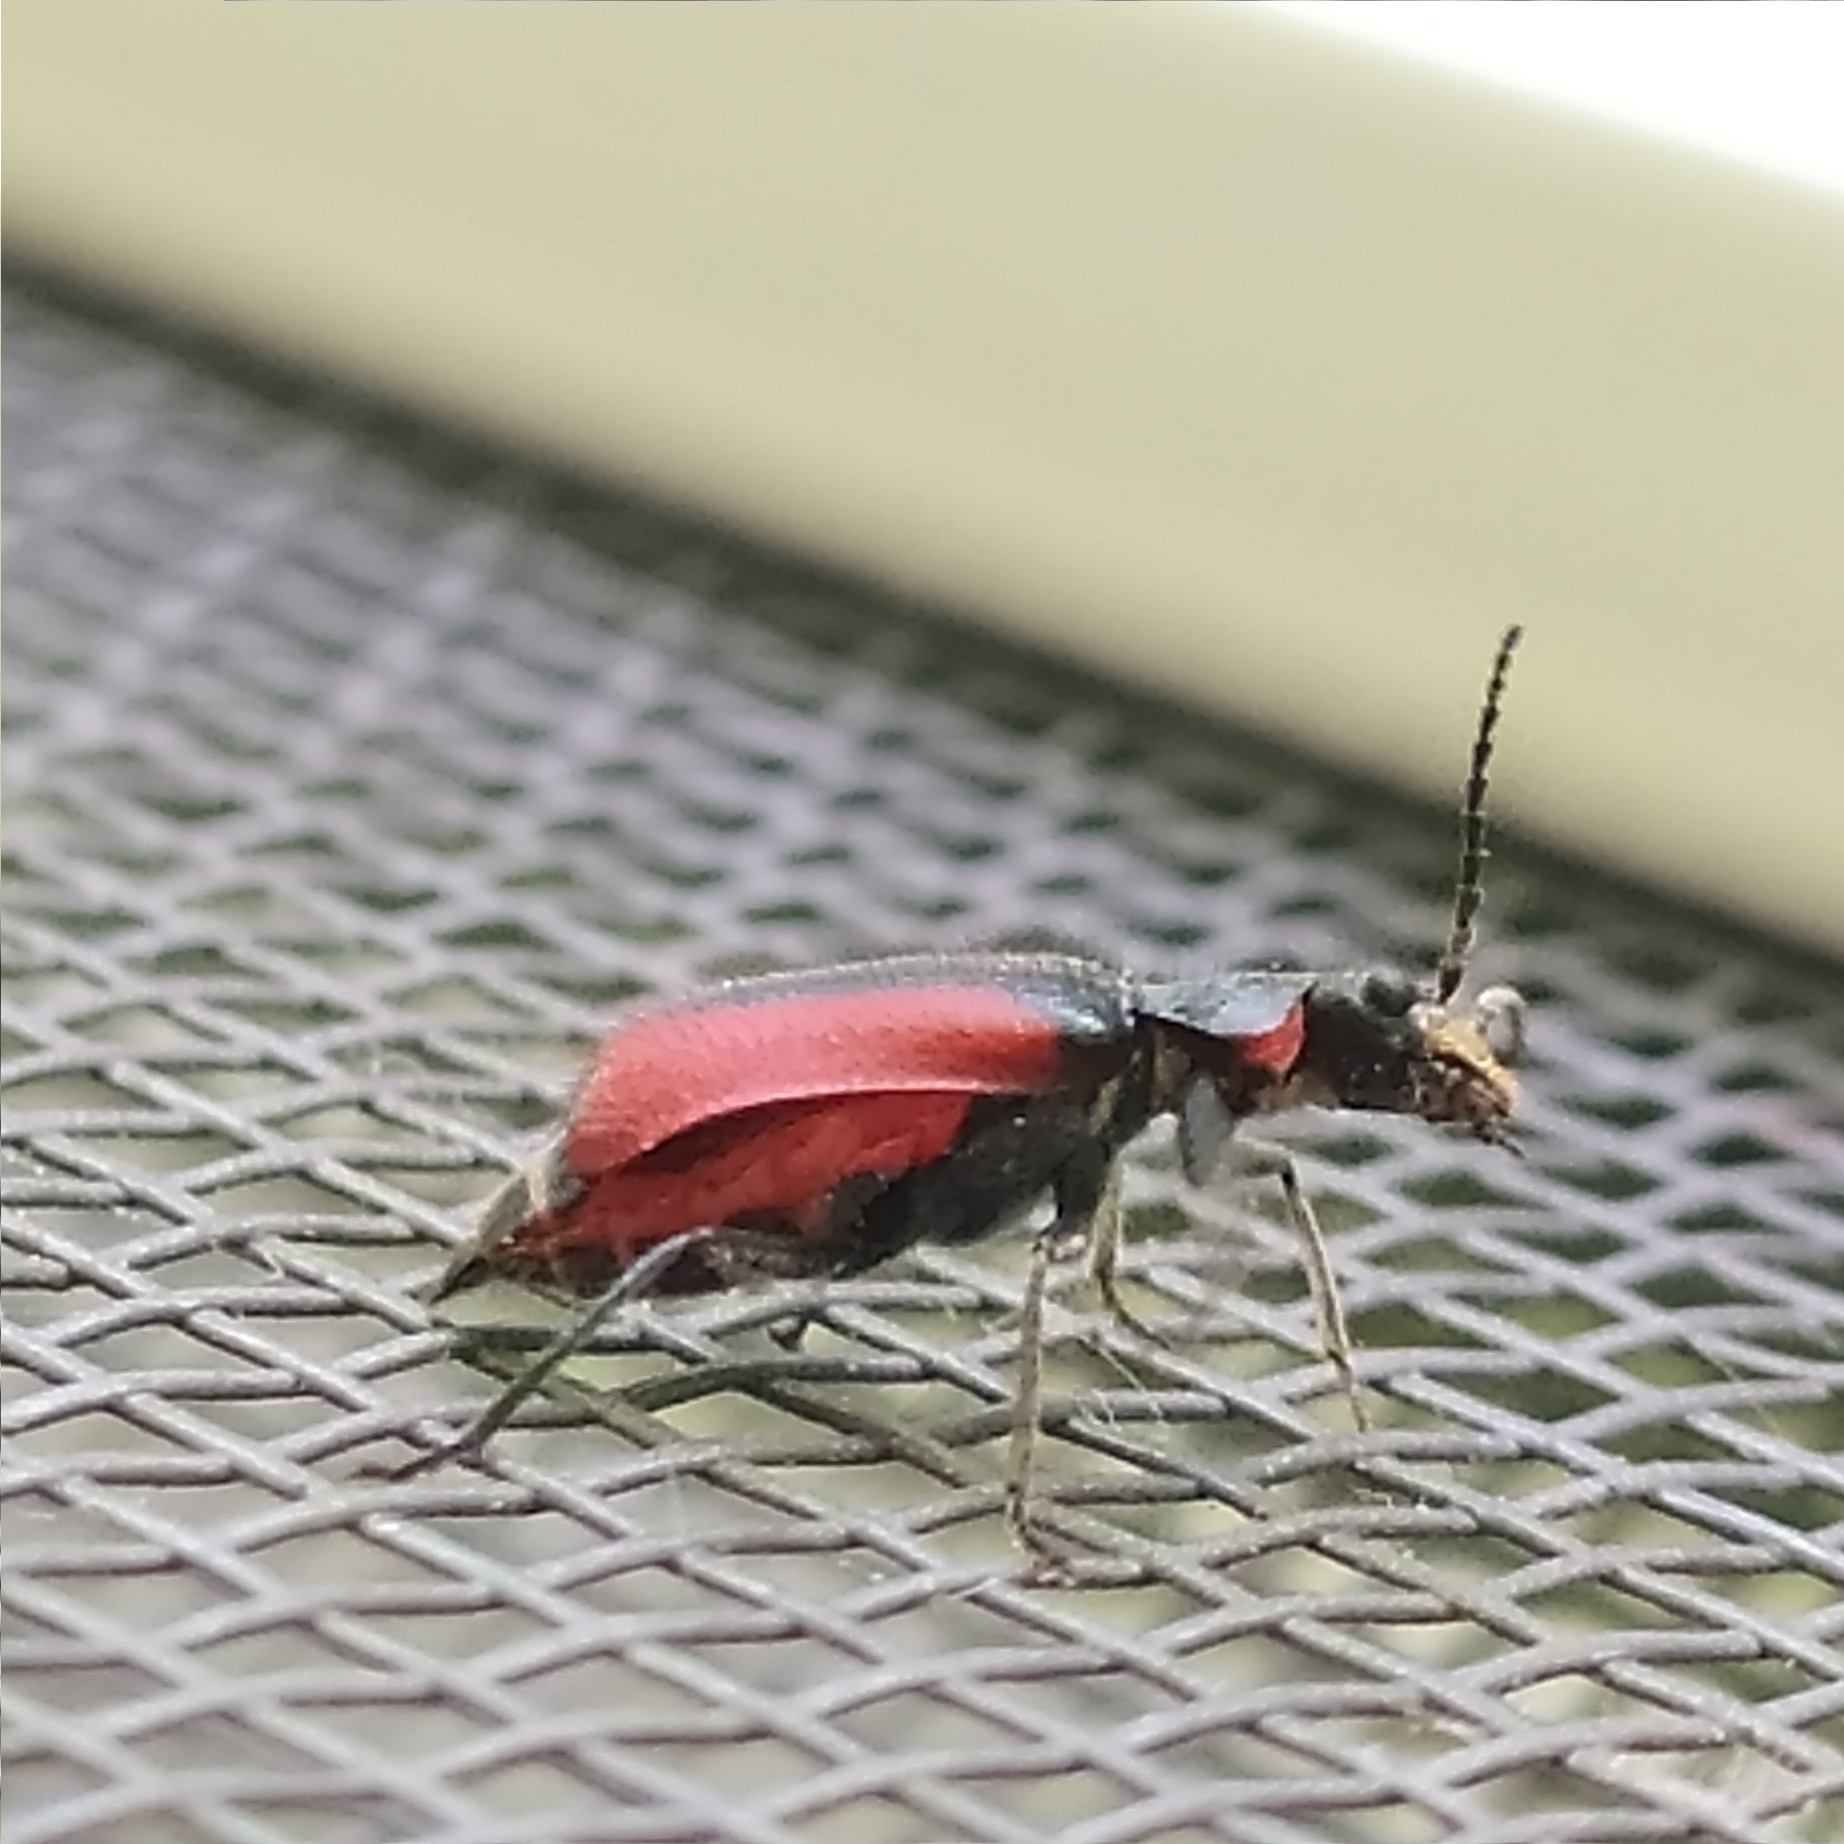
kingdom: Animalia
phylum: Arthropoda
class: Insecta
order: Coleoptera
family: Melyridae
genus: Malachius
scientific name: Malachius aeneus
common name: Scarlet malachite beetle
